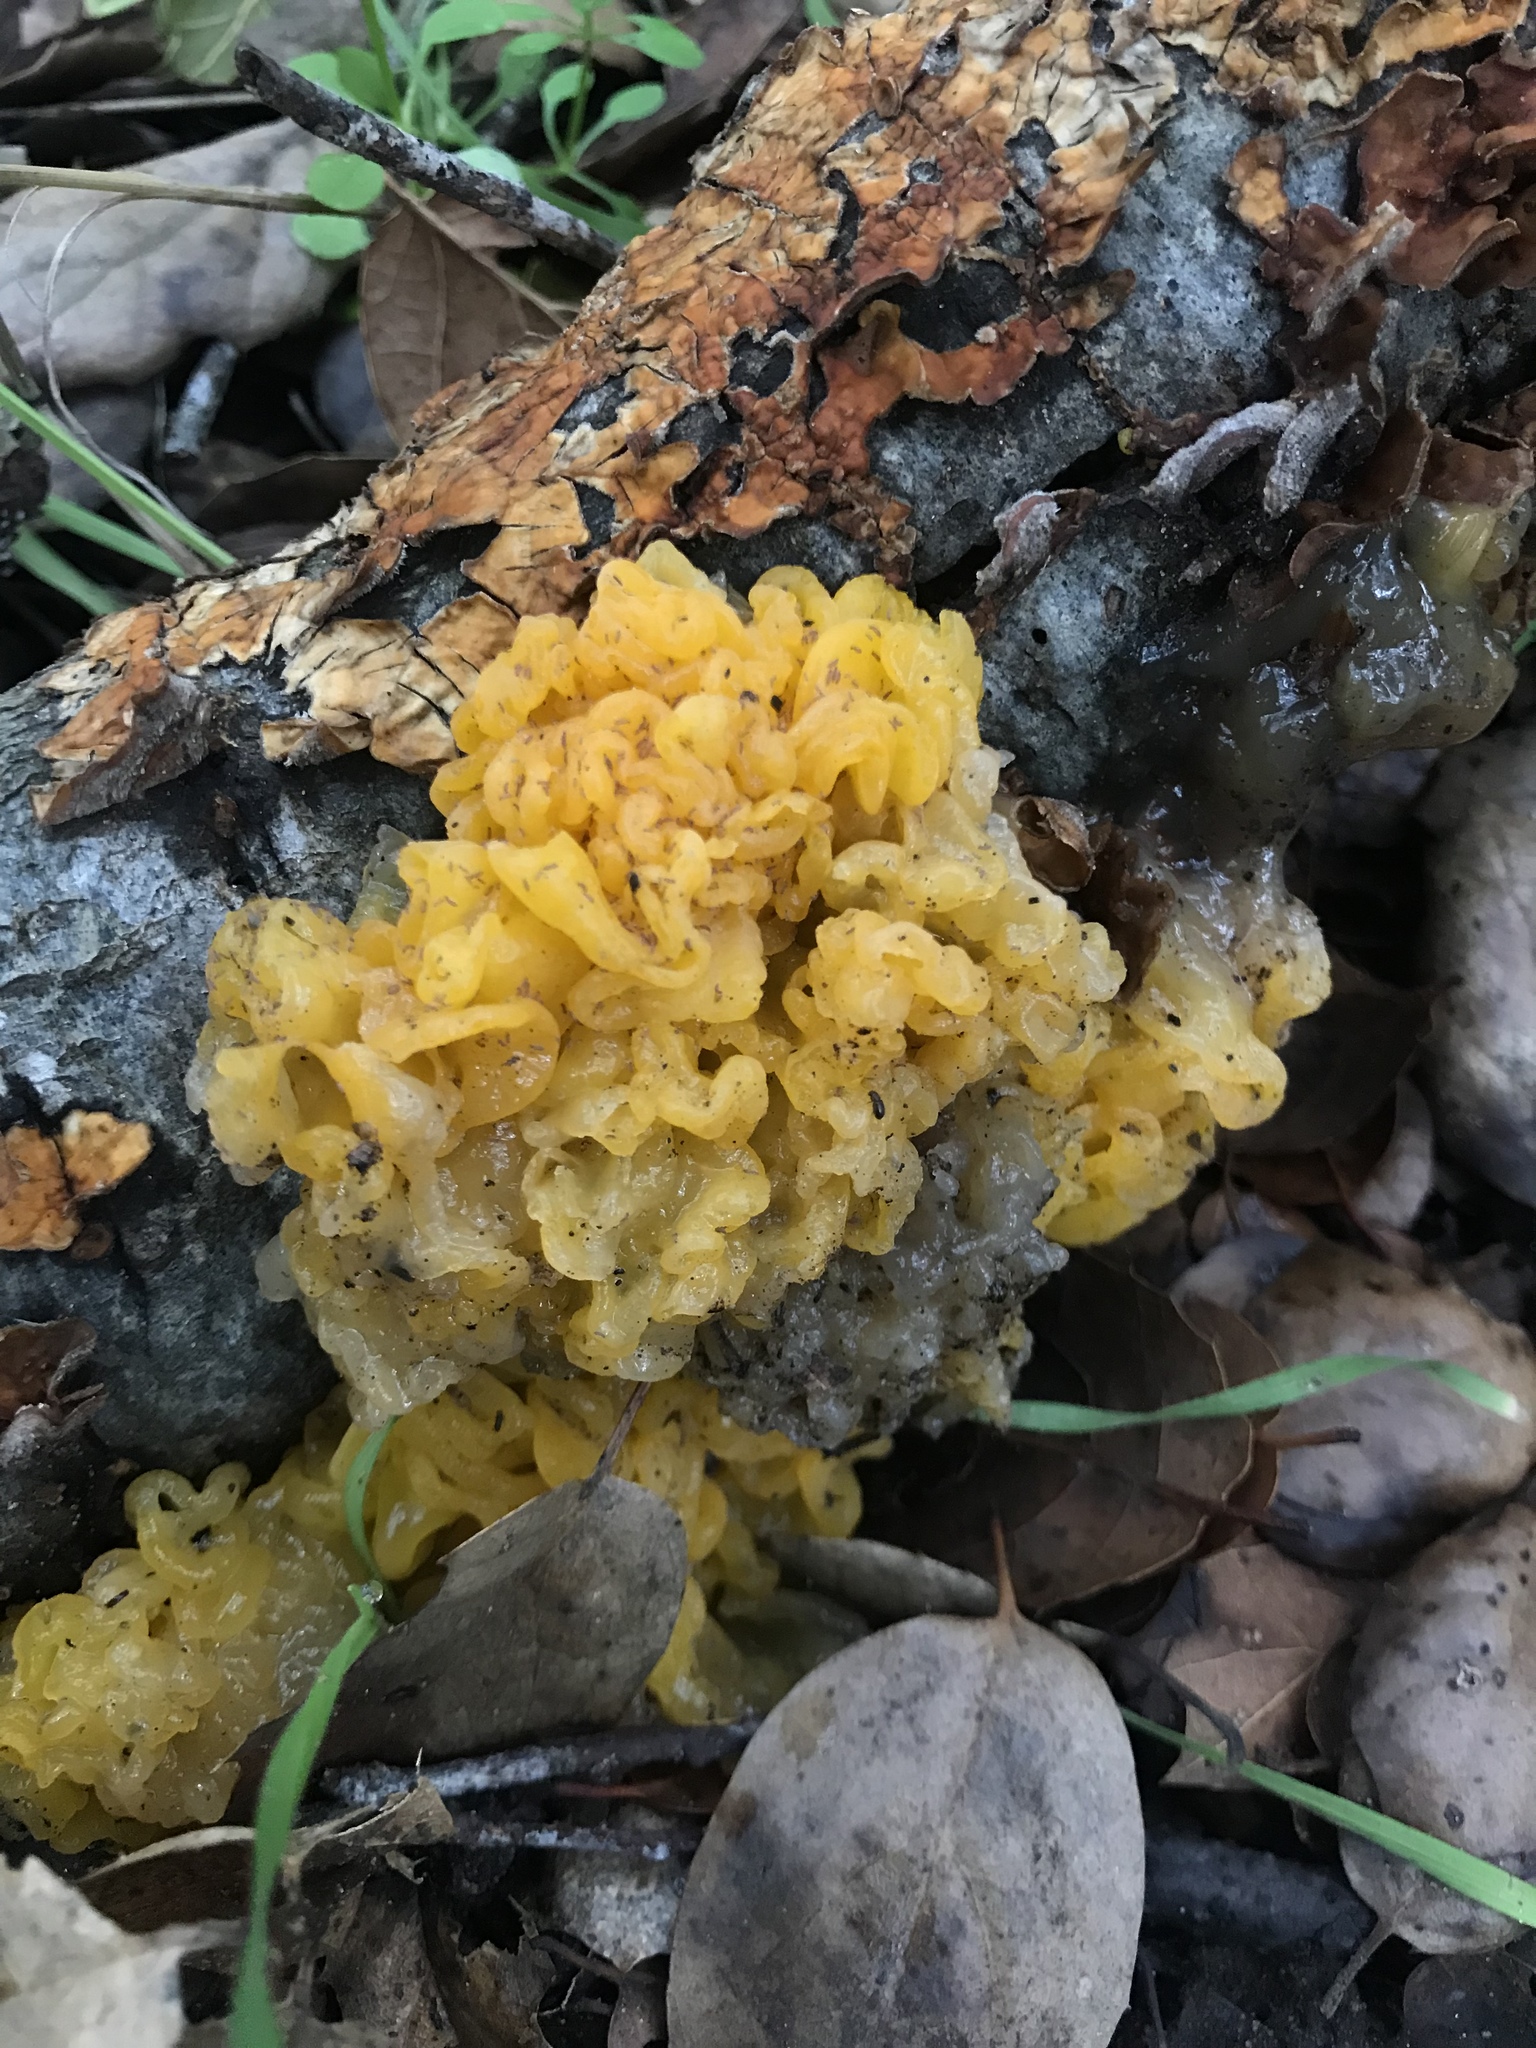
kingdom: Fungi
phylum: Basidiomycota
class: Tremellomycetes
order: Tremellales
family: Naemateliaceae
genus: Naematelia
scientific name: Naematelia aurantia
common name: Golden ear
